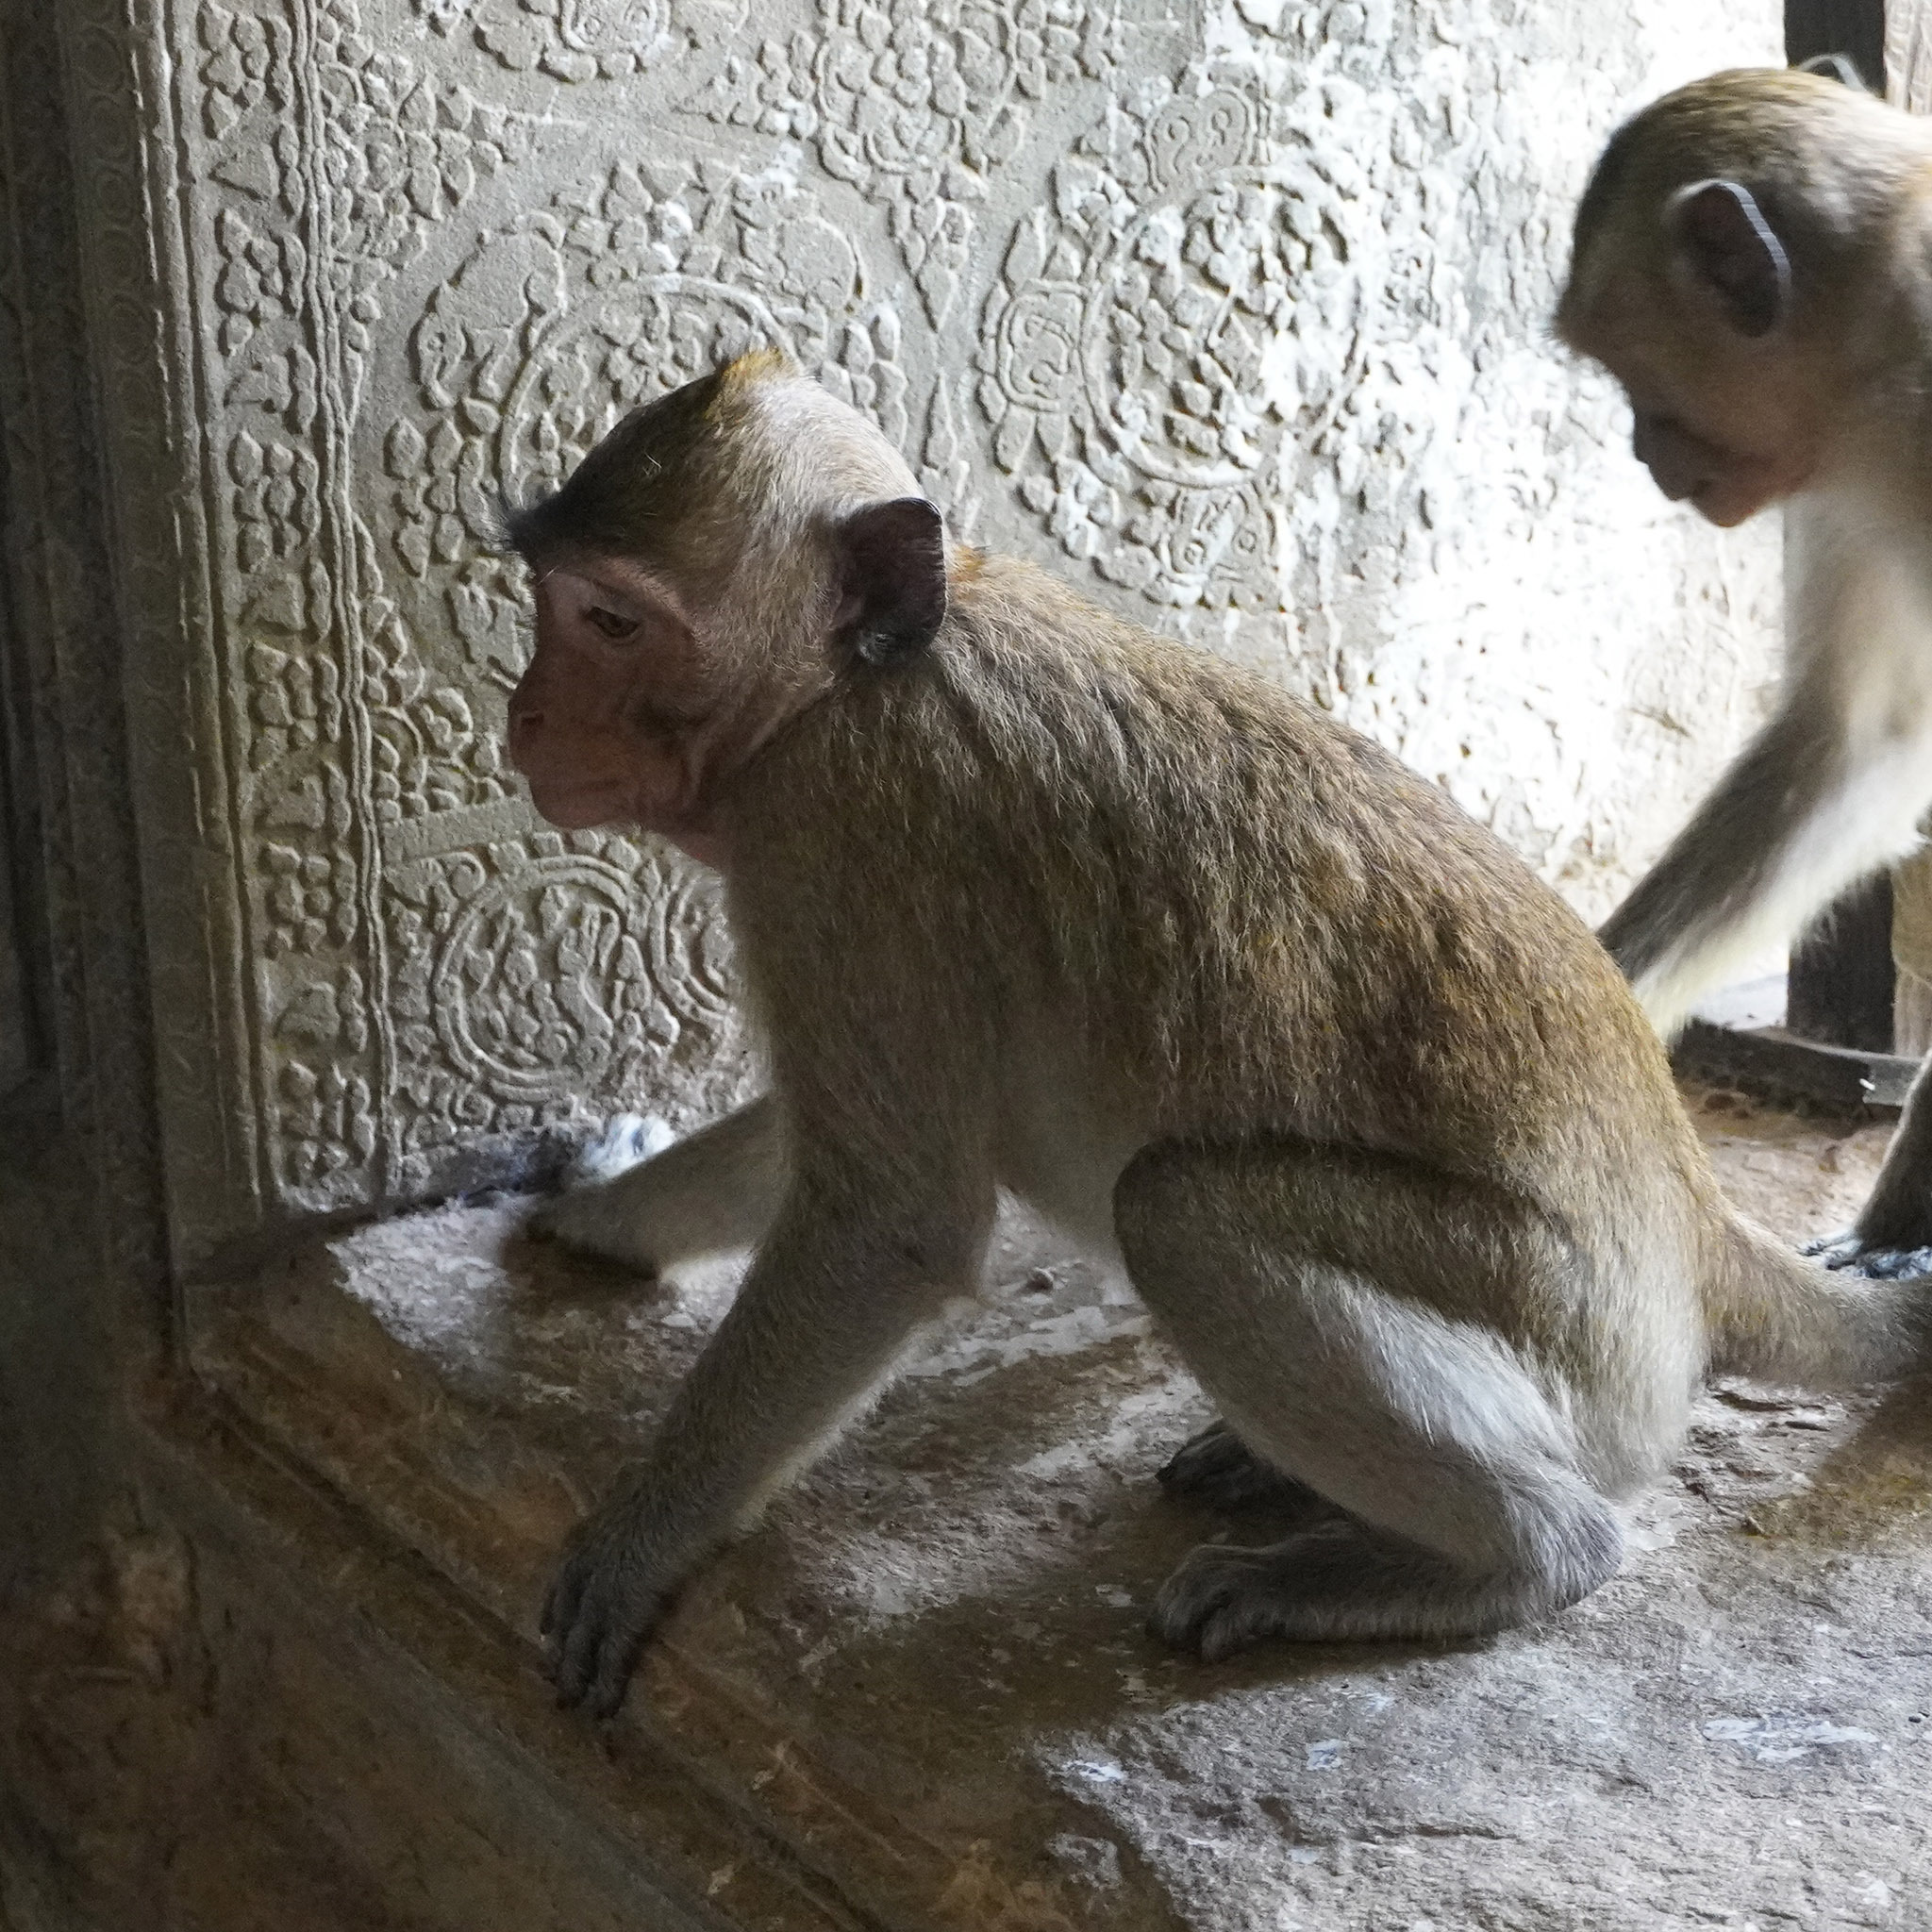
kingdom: Animalia
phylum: Chordata
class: Mammalia
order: Primates
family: Cercopithecidae
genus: Macaca
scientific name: Macaca fascicularis
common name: Crab-eating macaque
